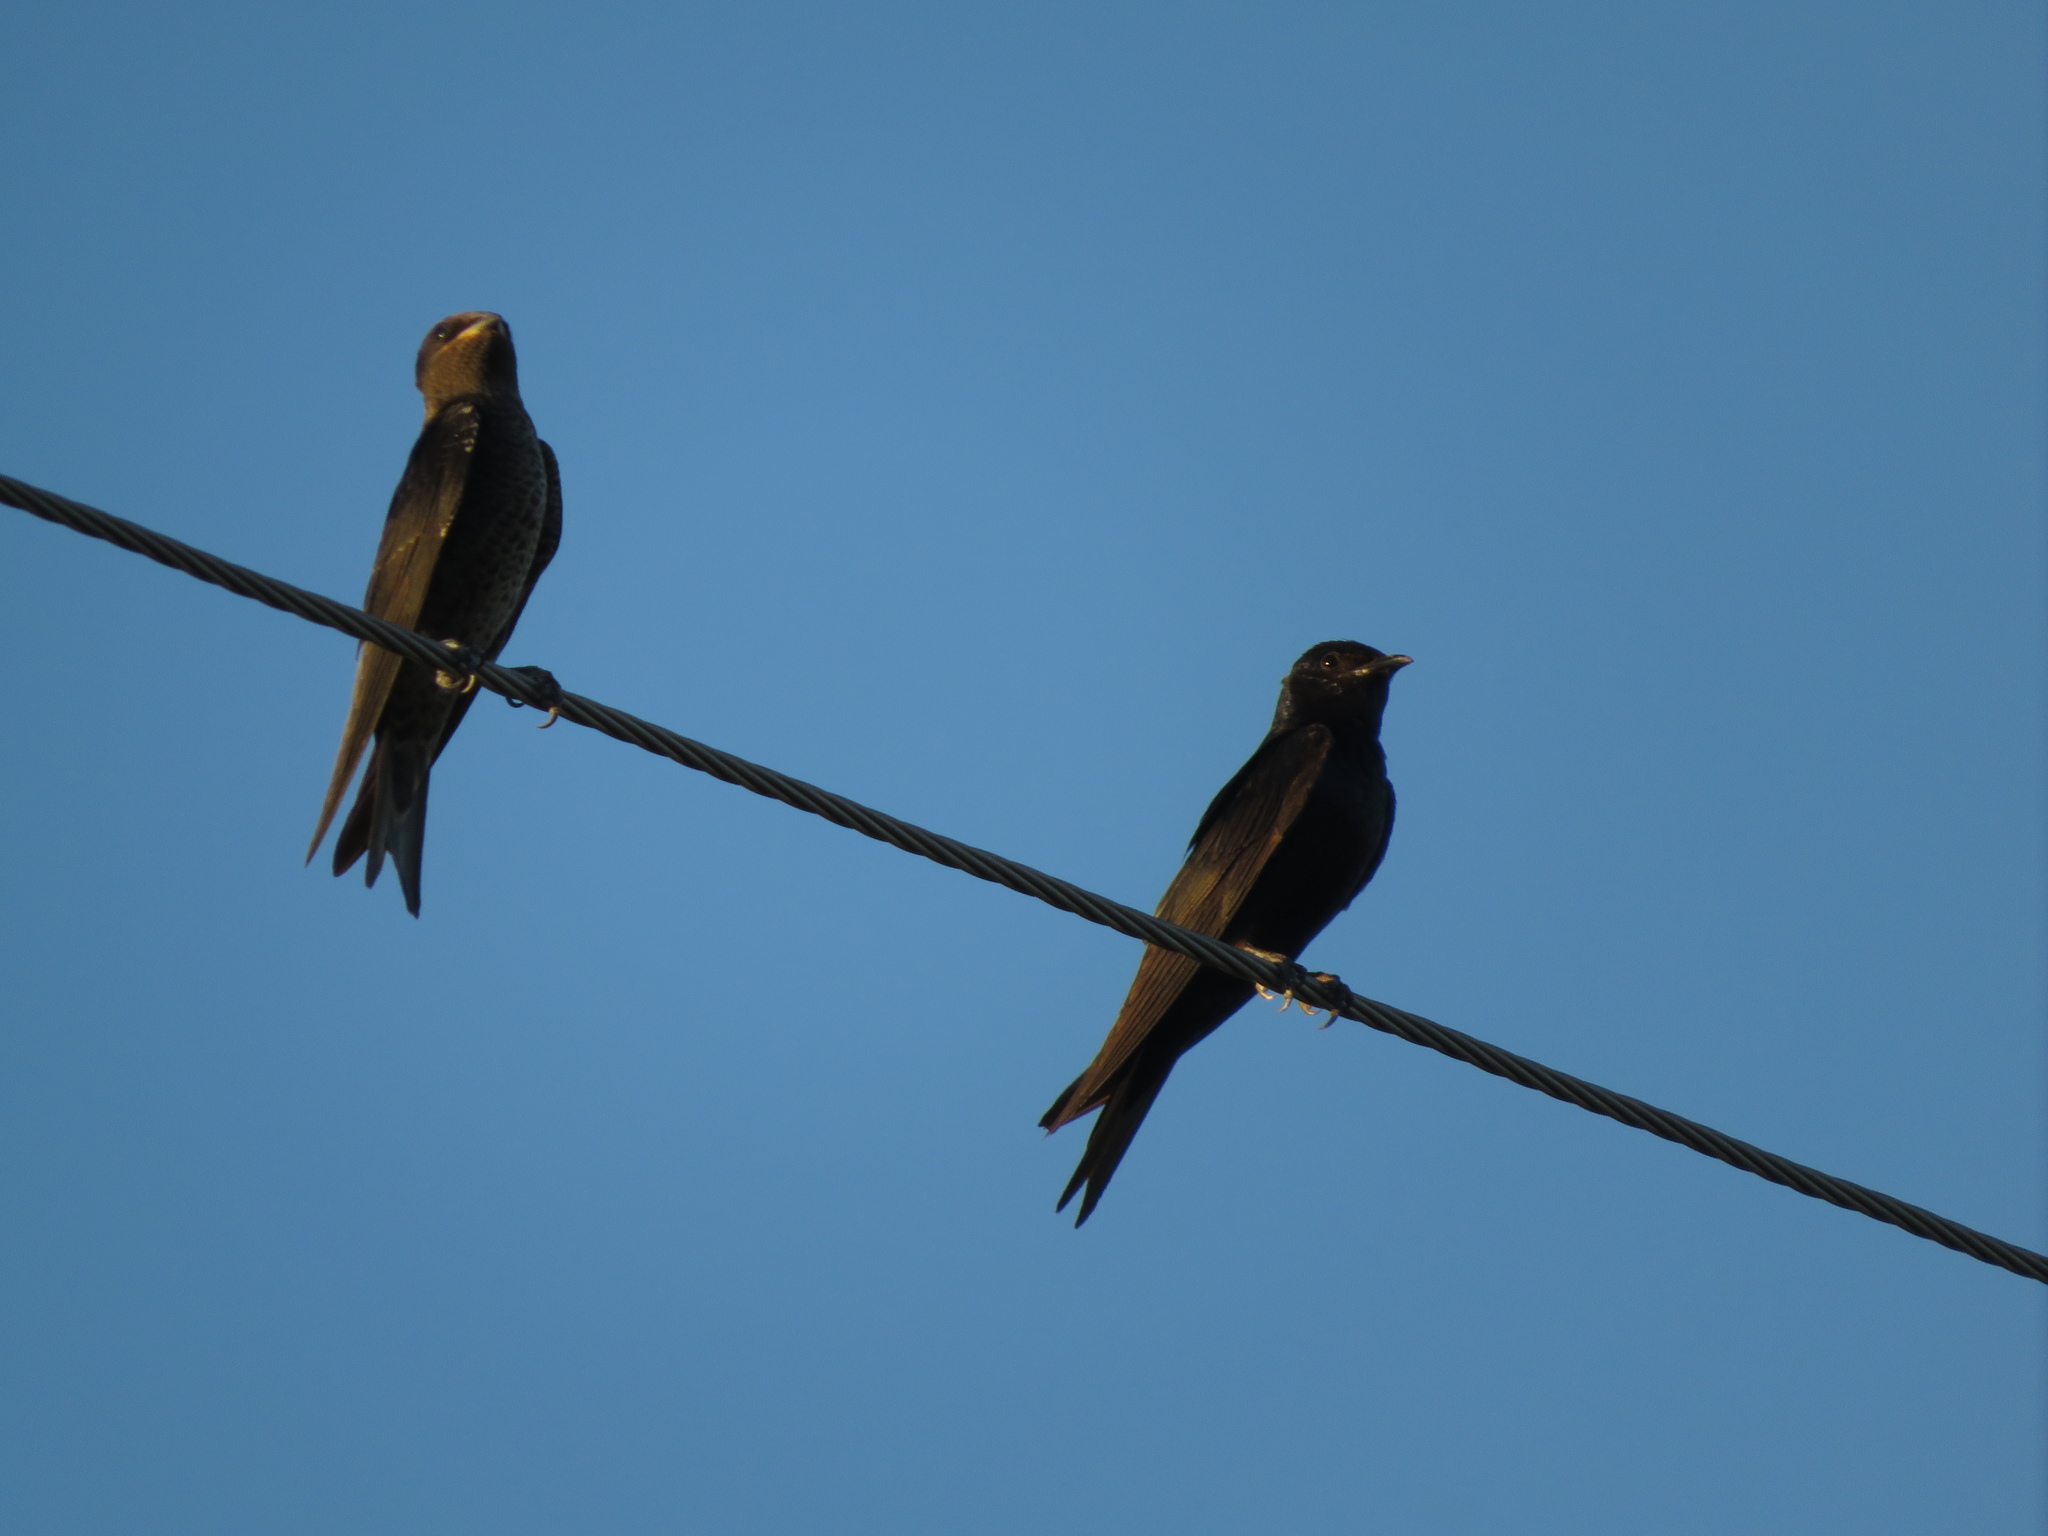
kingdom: Animalia
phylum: Chordata
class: Aves
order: Passeriformes
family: Hirundinidae
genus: Progne
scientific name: Progne elegans
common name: Southern martin
